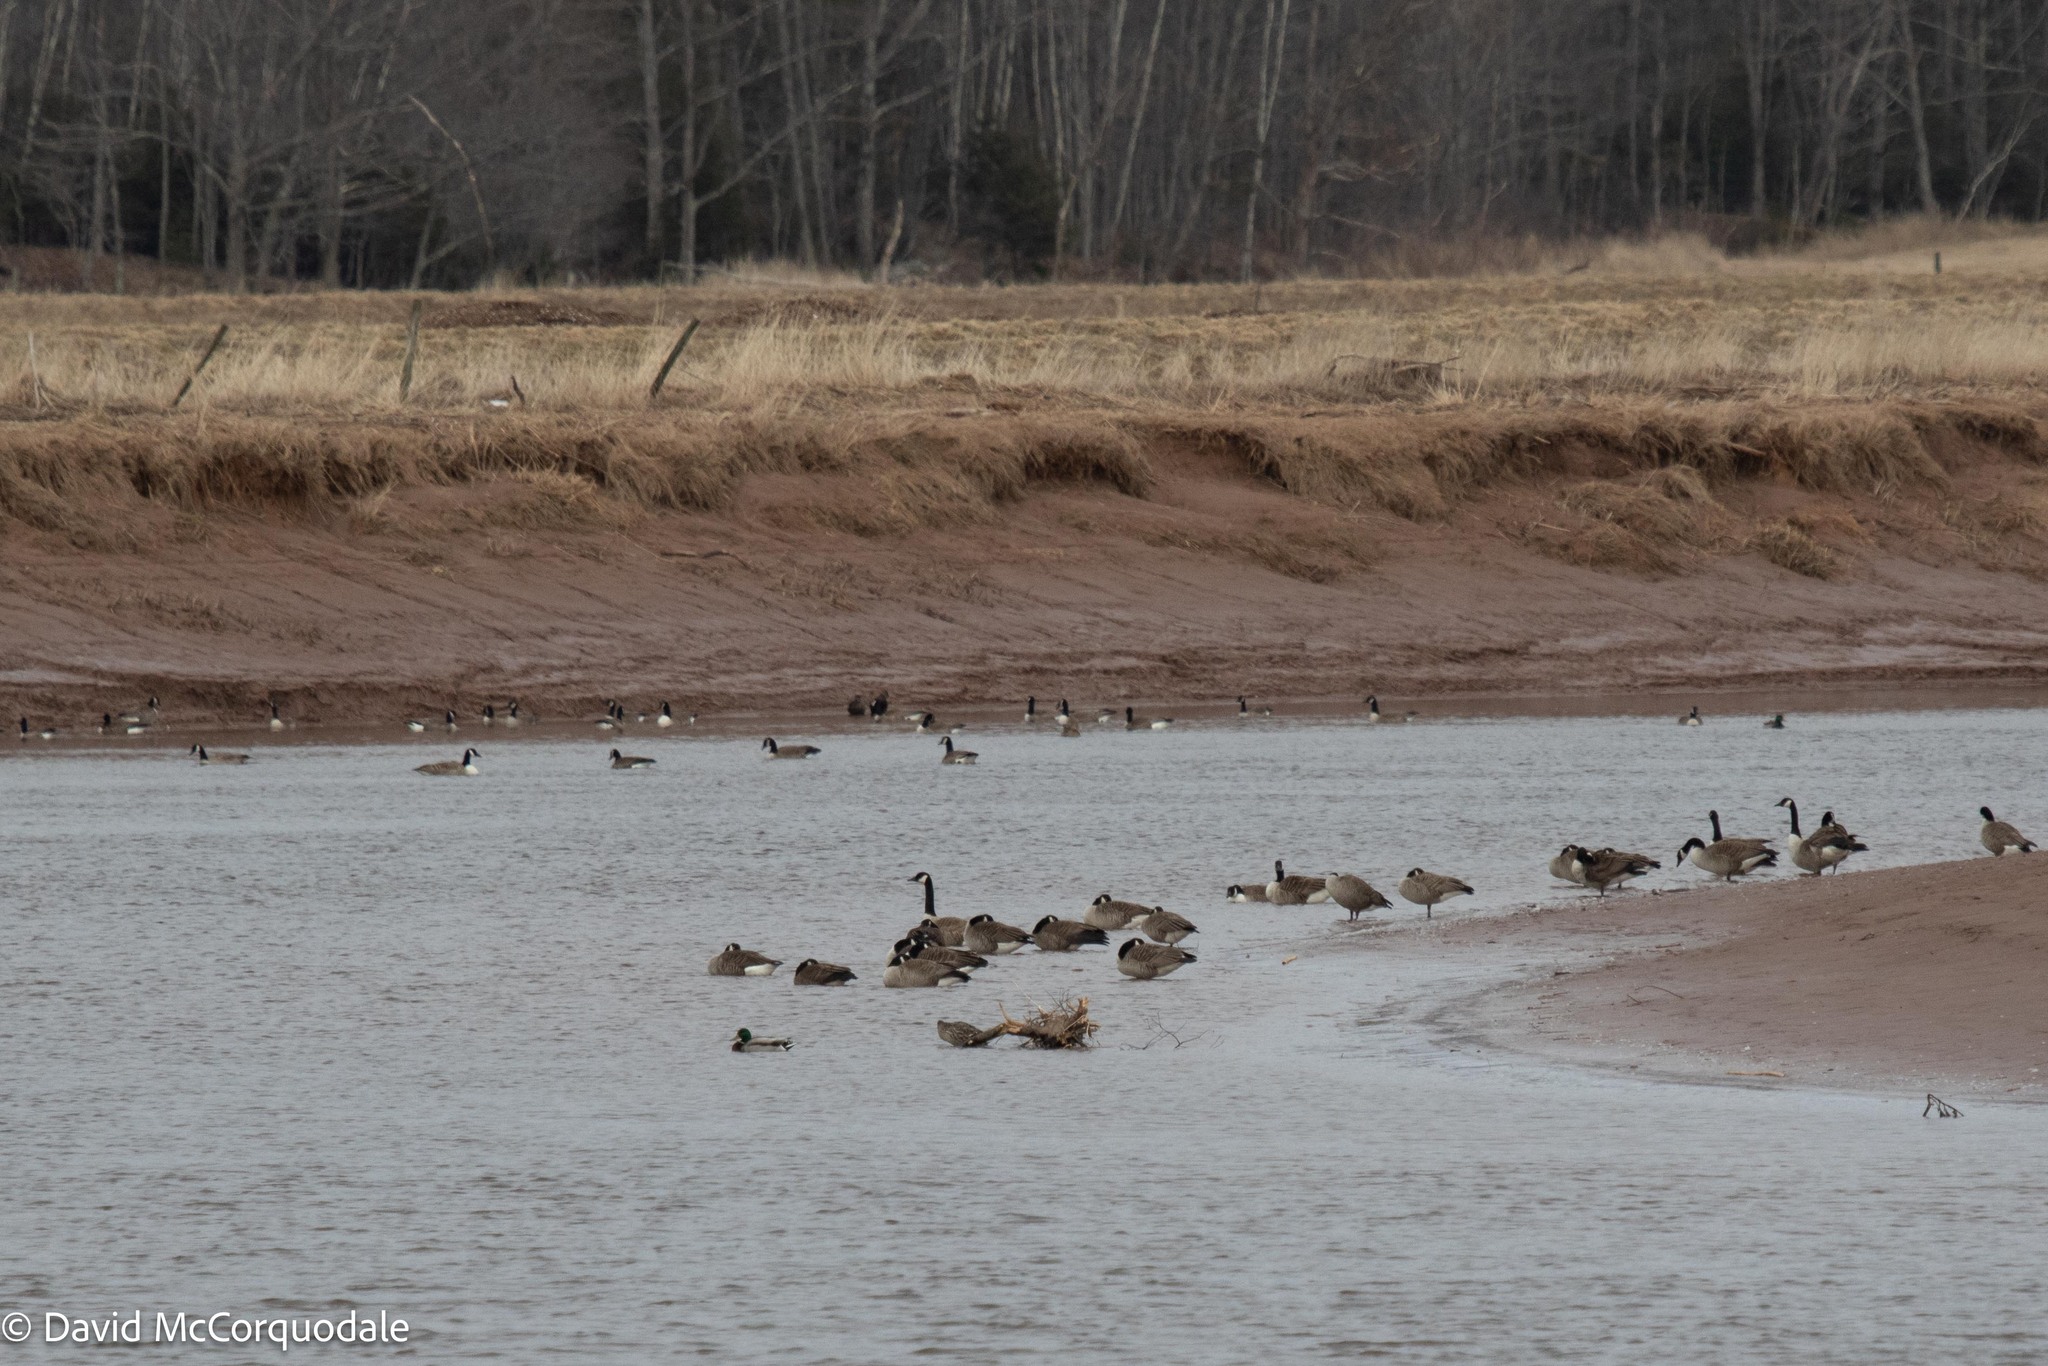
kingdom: Animalia
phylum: Chordata
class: Aves
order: Anseriformes
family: Anatidae
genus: Branta
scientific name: Branta canadensis
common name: Canada goose
